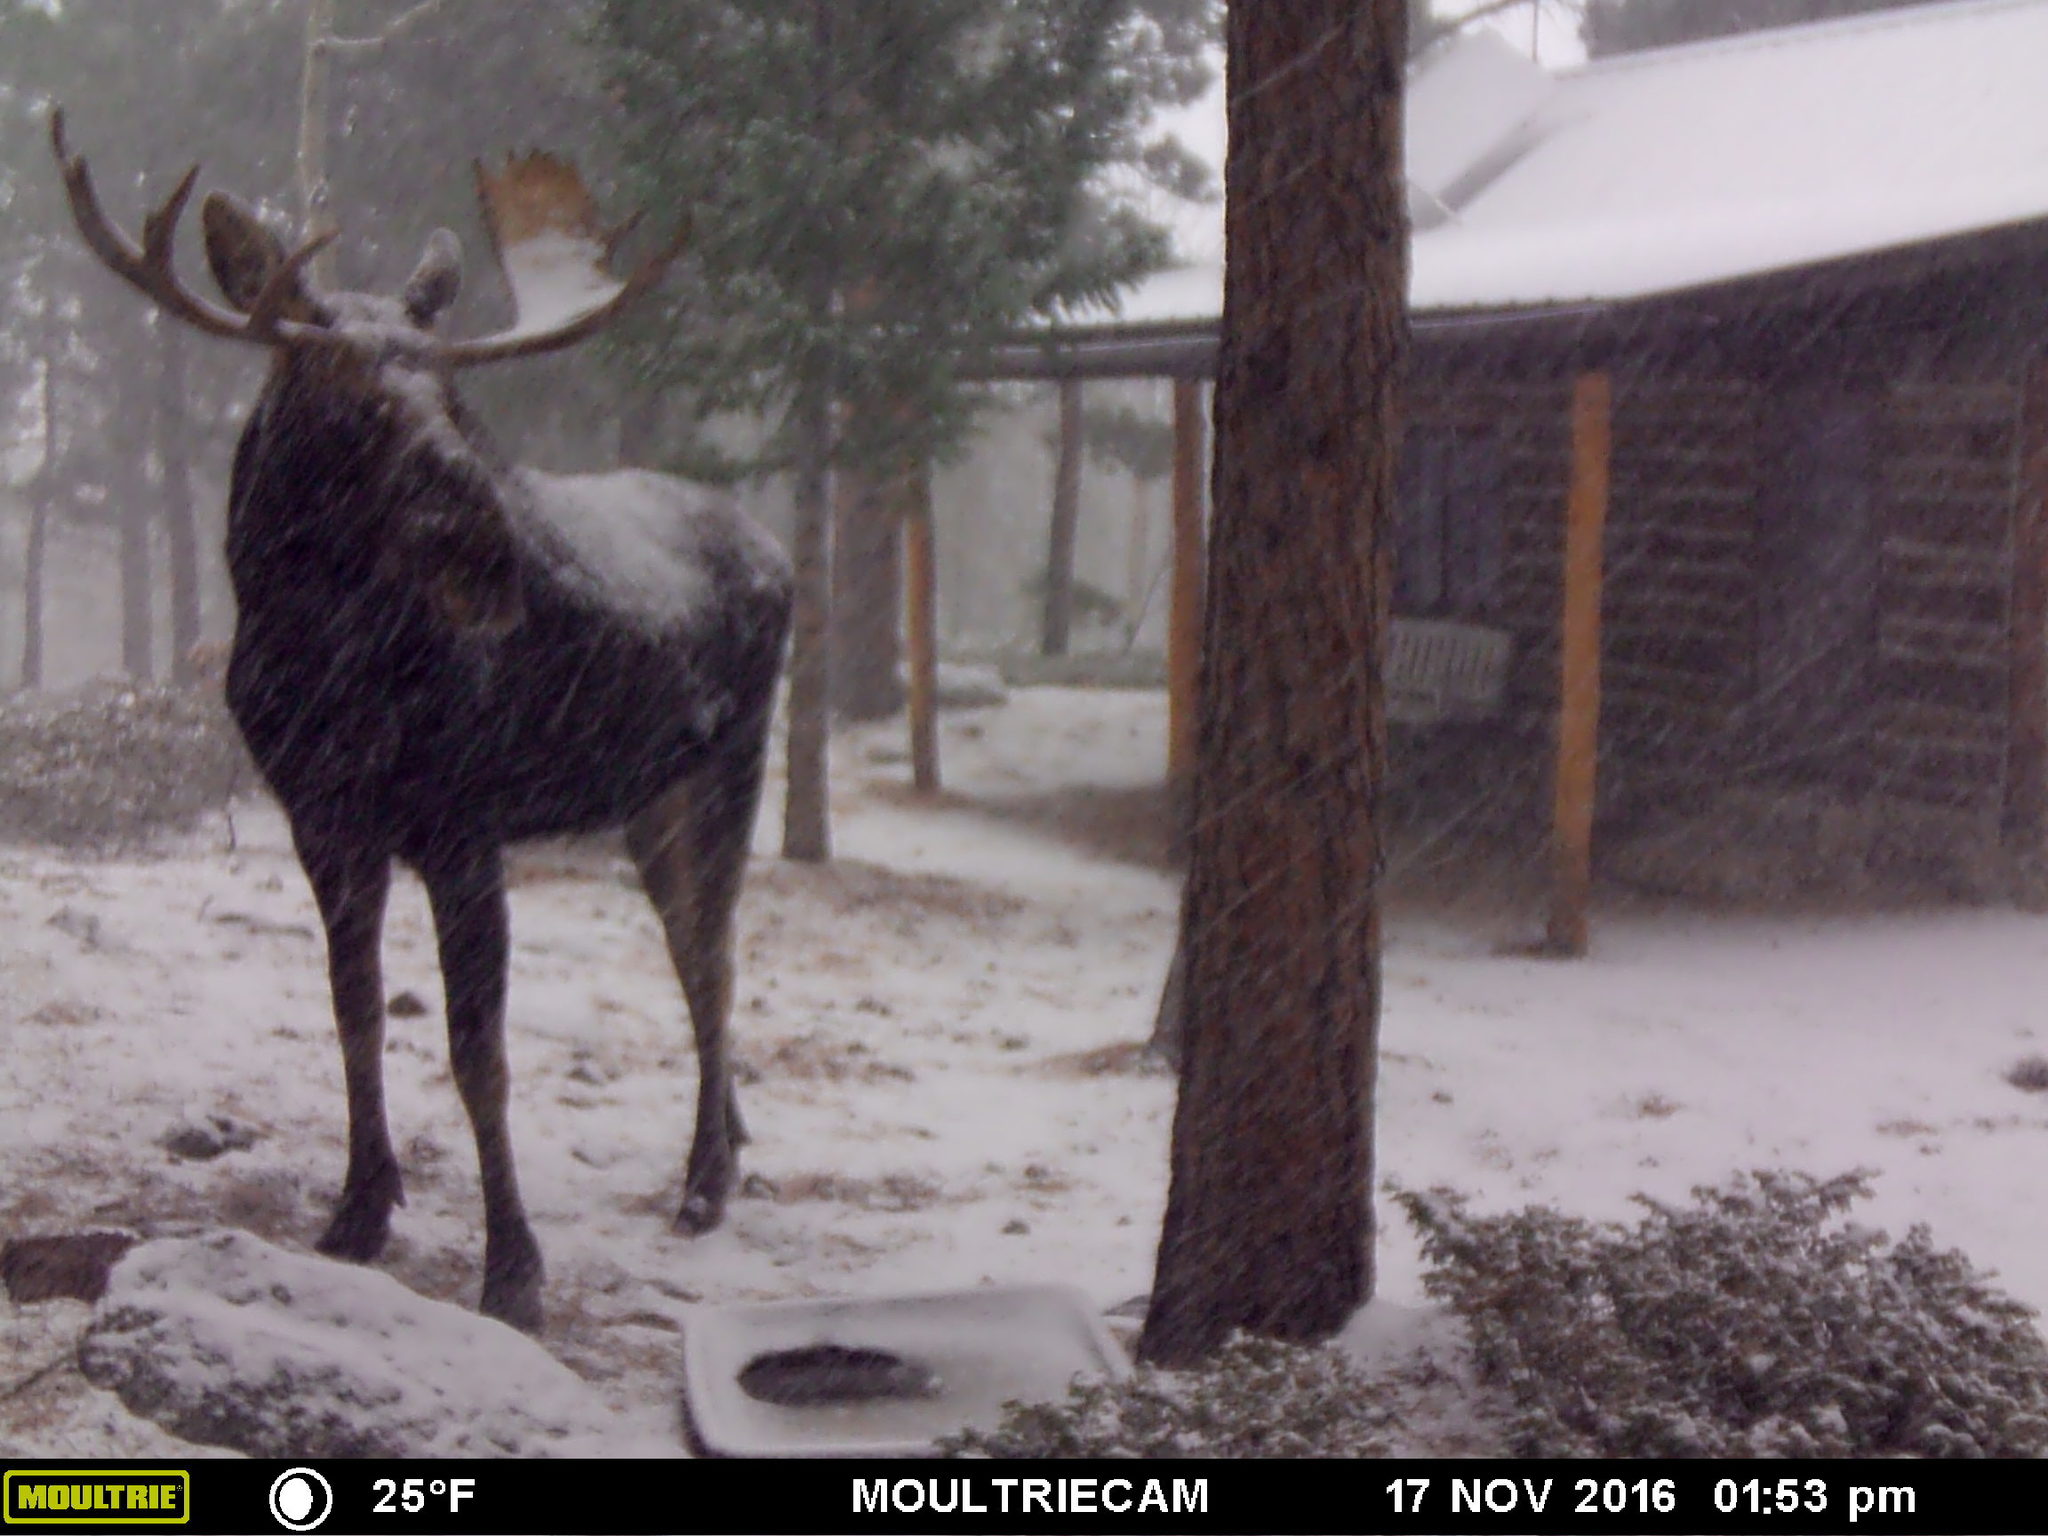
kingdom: Animalia
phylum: Chordata
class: Mammalia
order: Artiodactyla
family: Cervidae
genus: Alces
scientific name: Alces alces
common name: Moose
